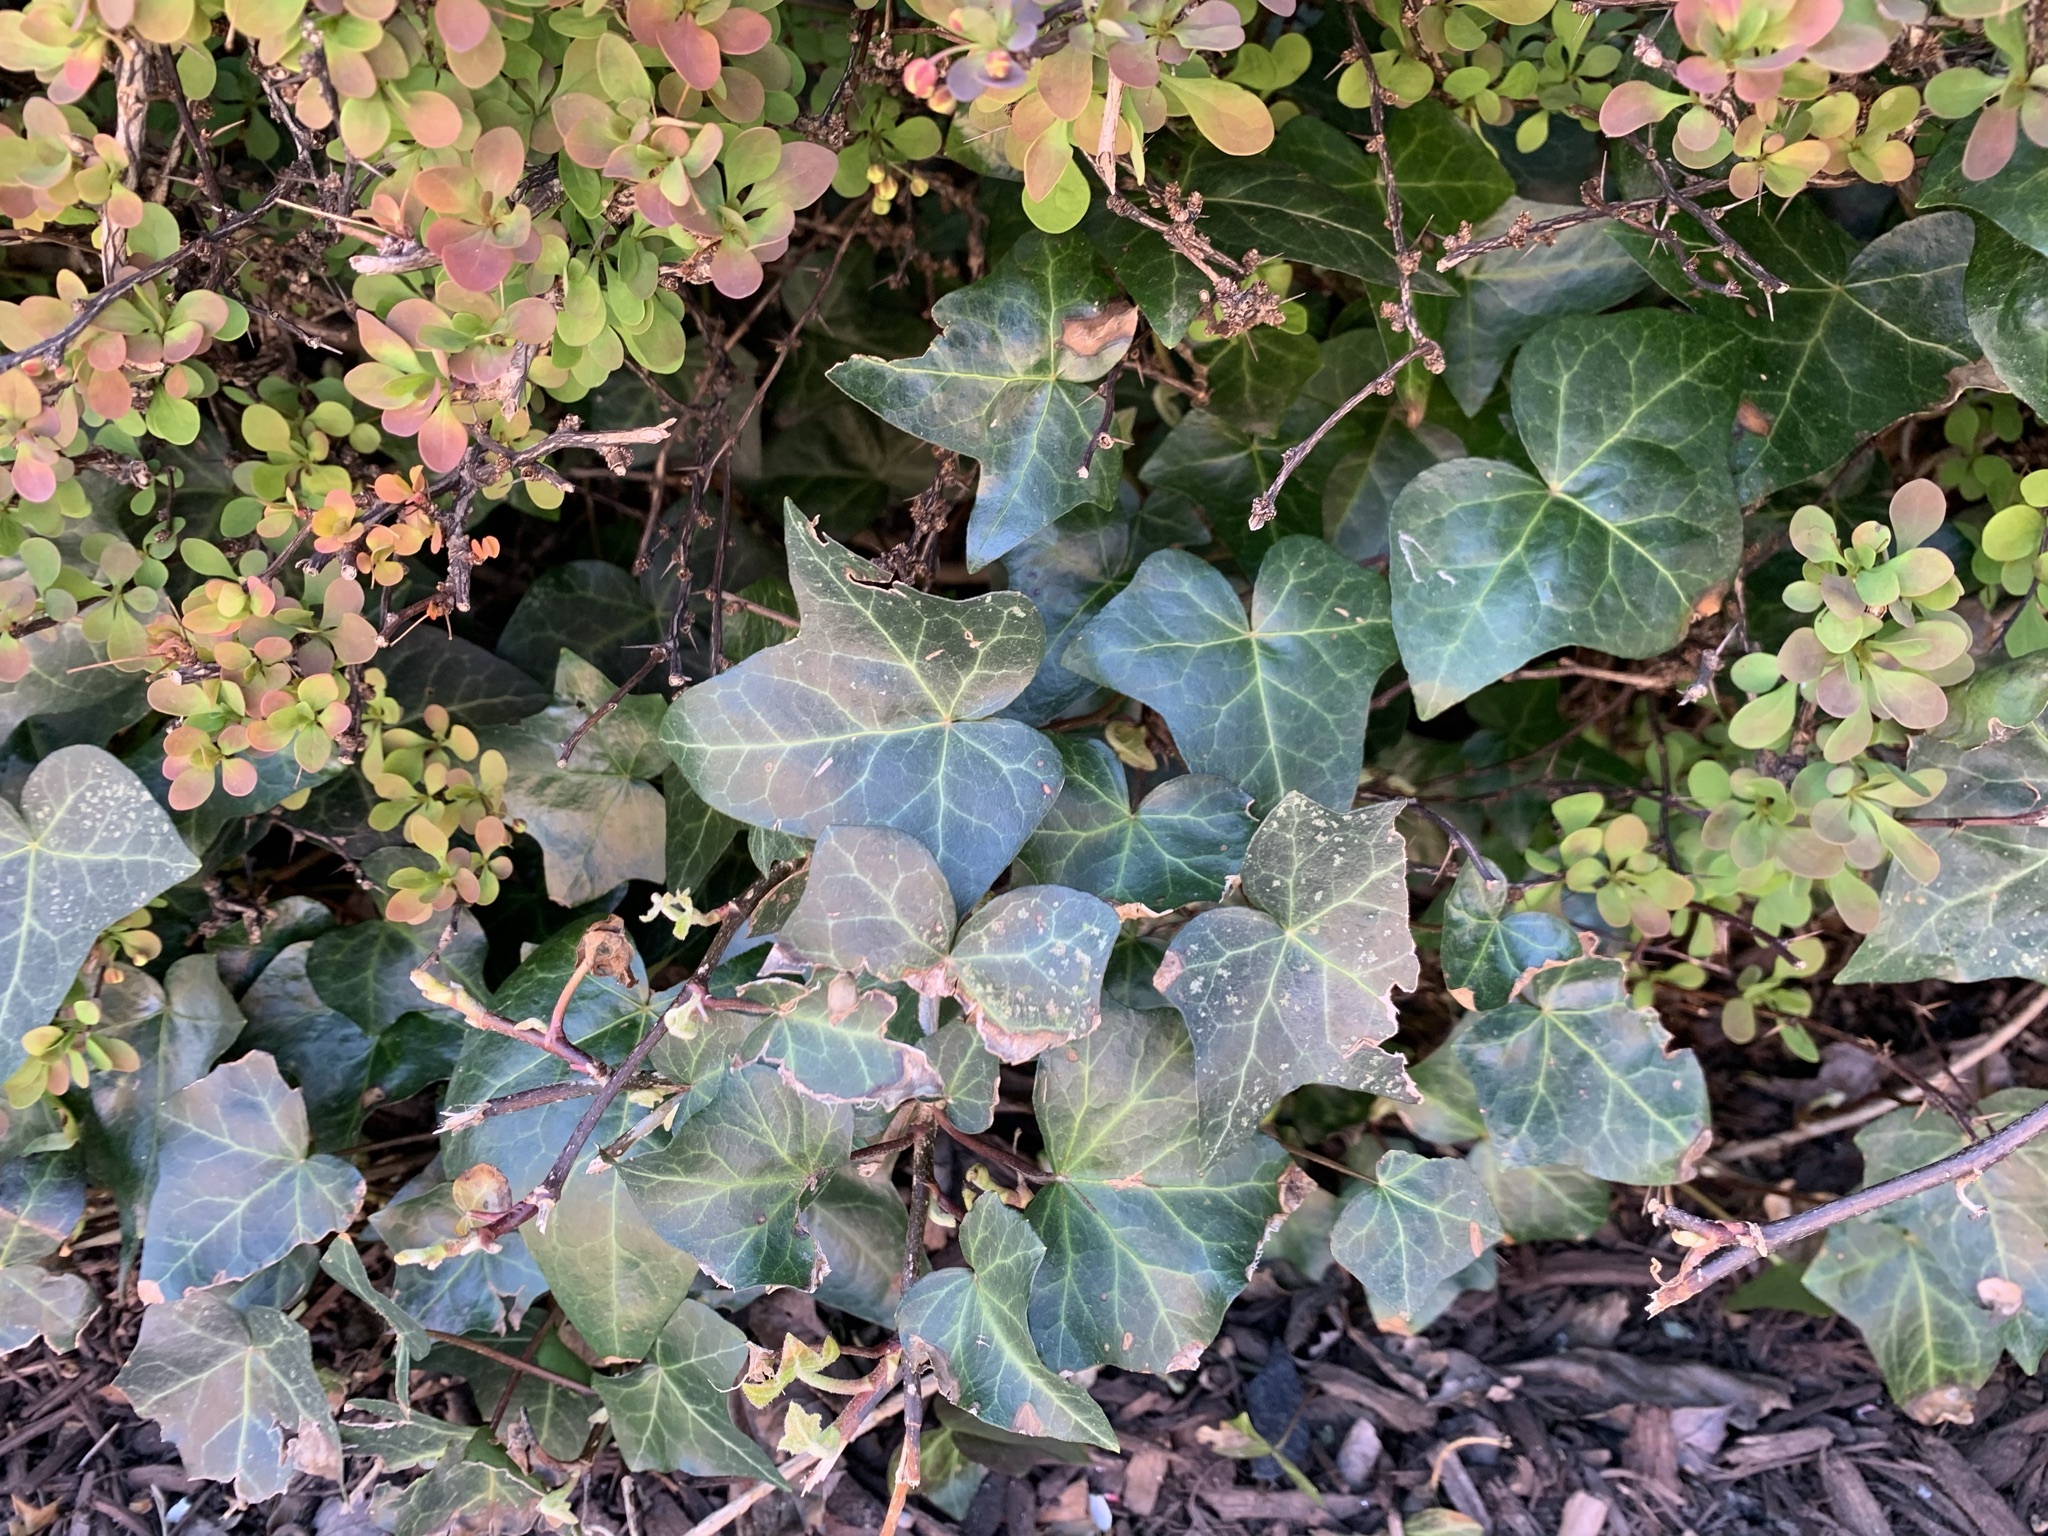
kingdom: Plantae
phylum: Tracheophyta
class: Magnoliopsida
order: Apiales
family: Araliaceae
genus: Hedera
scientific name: Hedera helix
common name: Ivy
